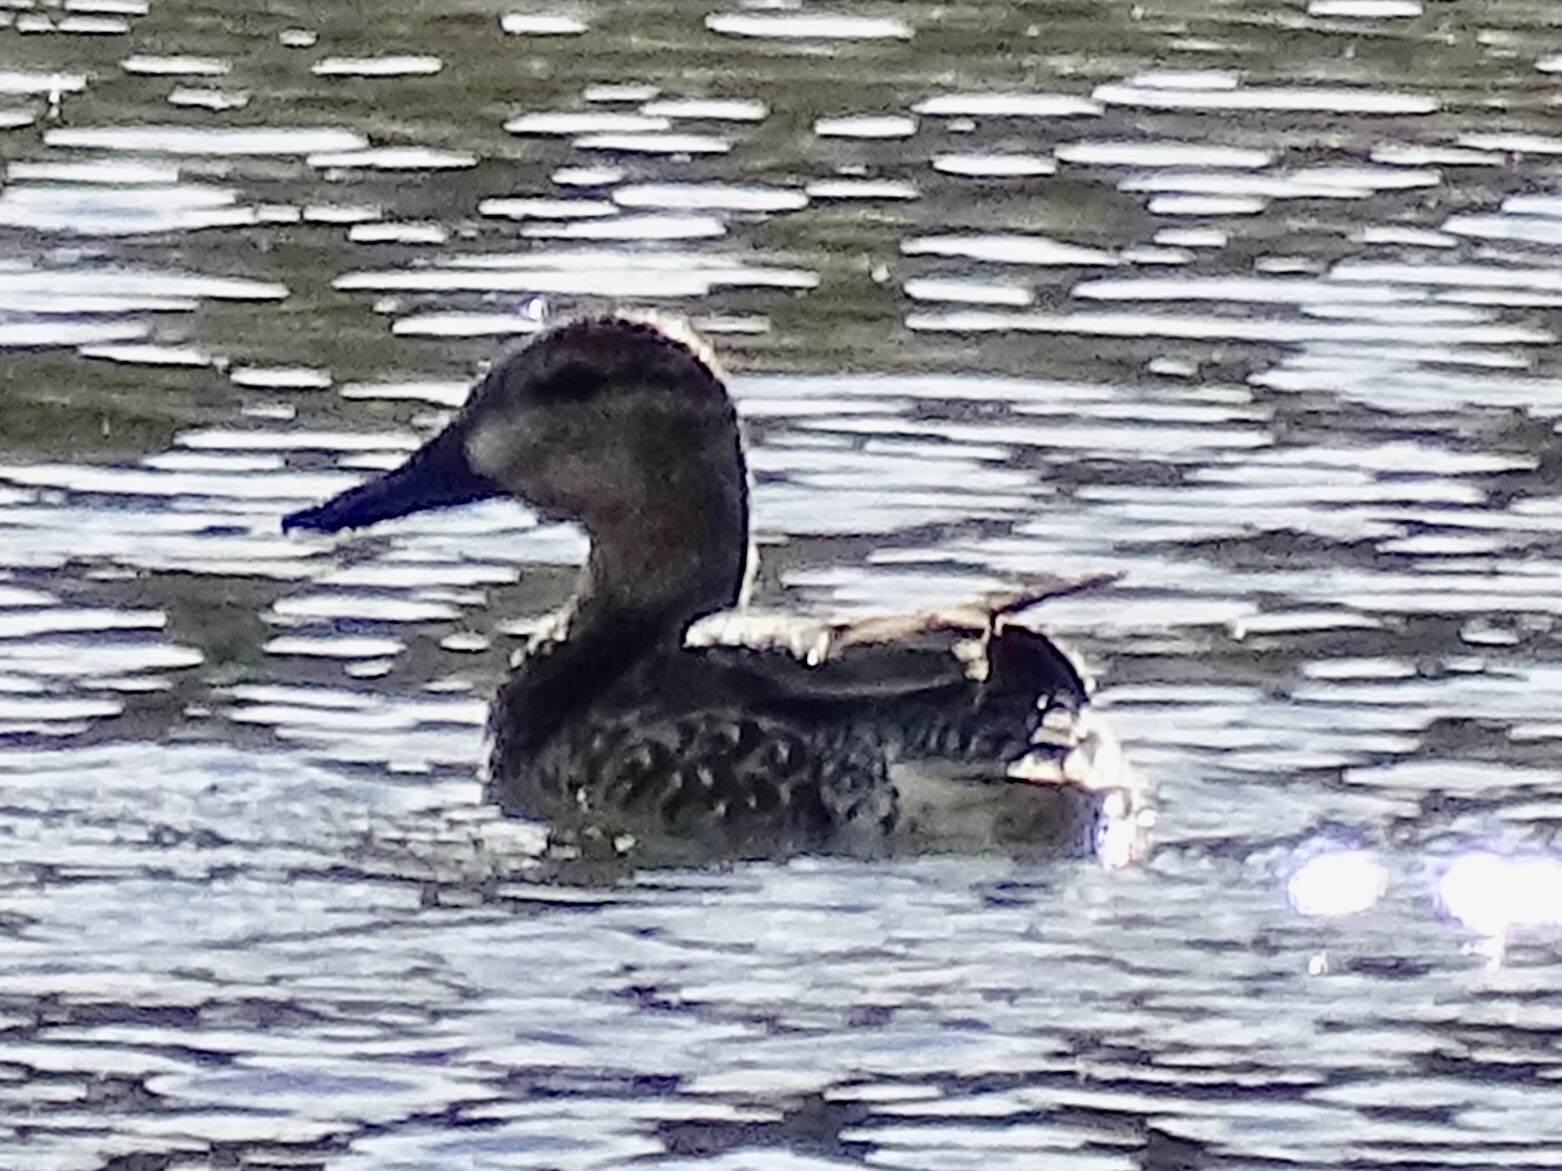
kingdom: Animalia
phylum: Chordata
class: Aves
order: Anseriformes
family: Anatidae
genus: Anas
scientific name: Anas crecca
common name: Eurasian teal
